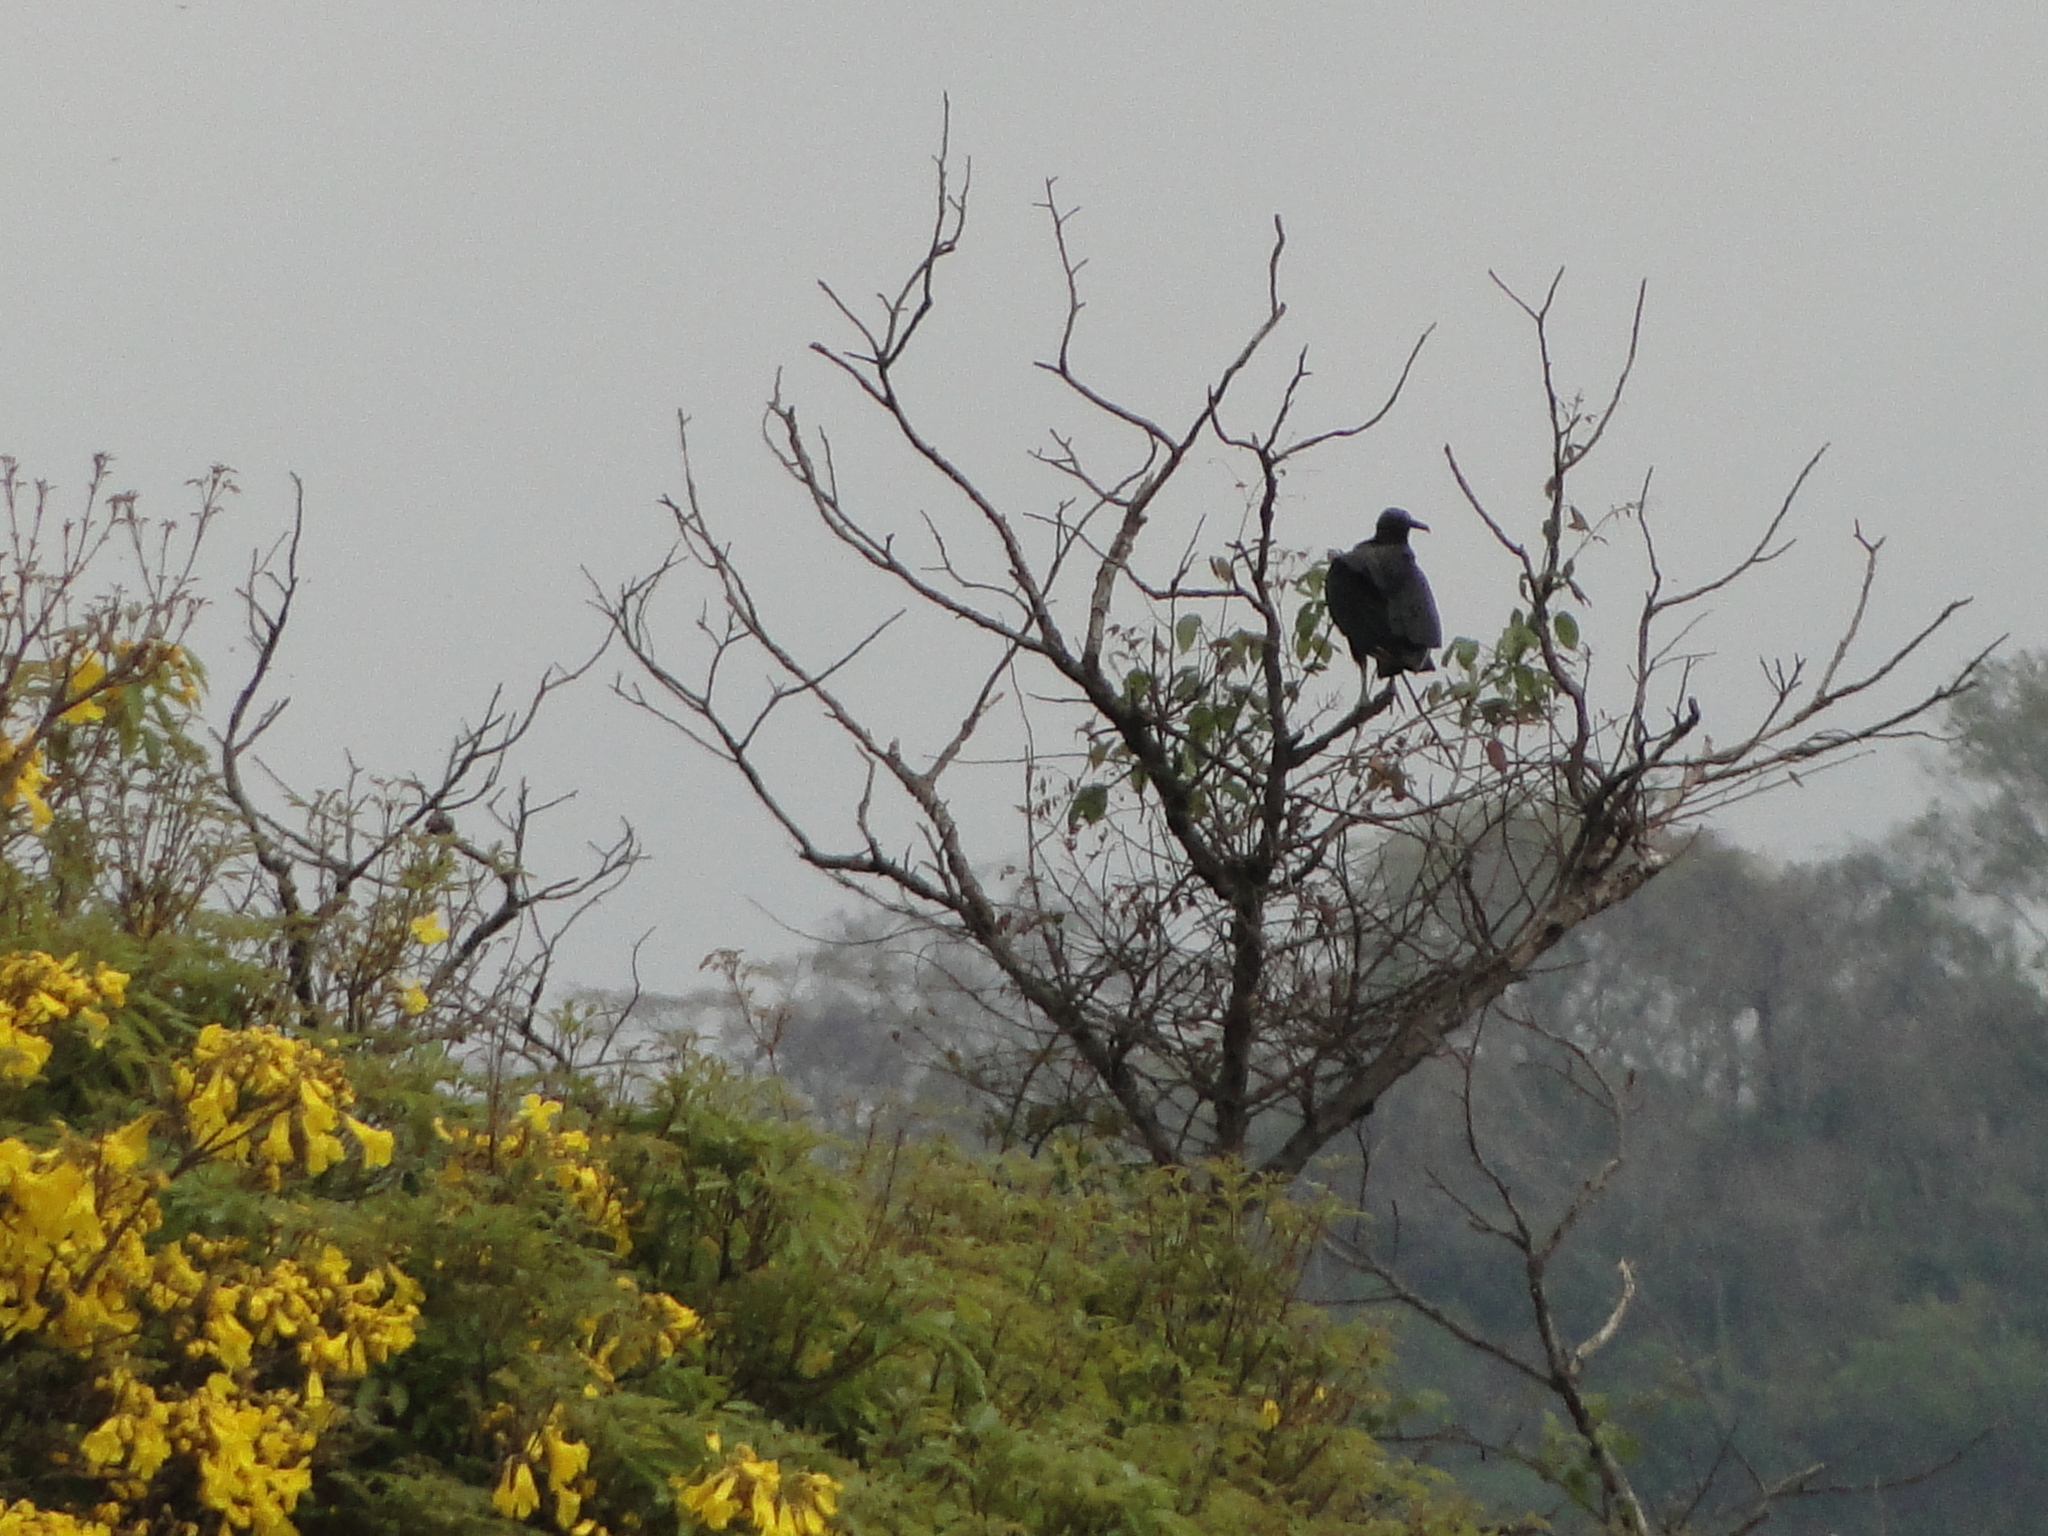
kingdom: Animalia
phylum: Chordata
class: Aves
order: Accipitriformes
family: Cathartidae
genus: Coragyps
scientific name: Coragyps atratus
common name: Black vulture
